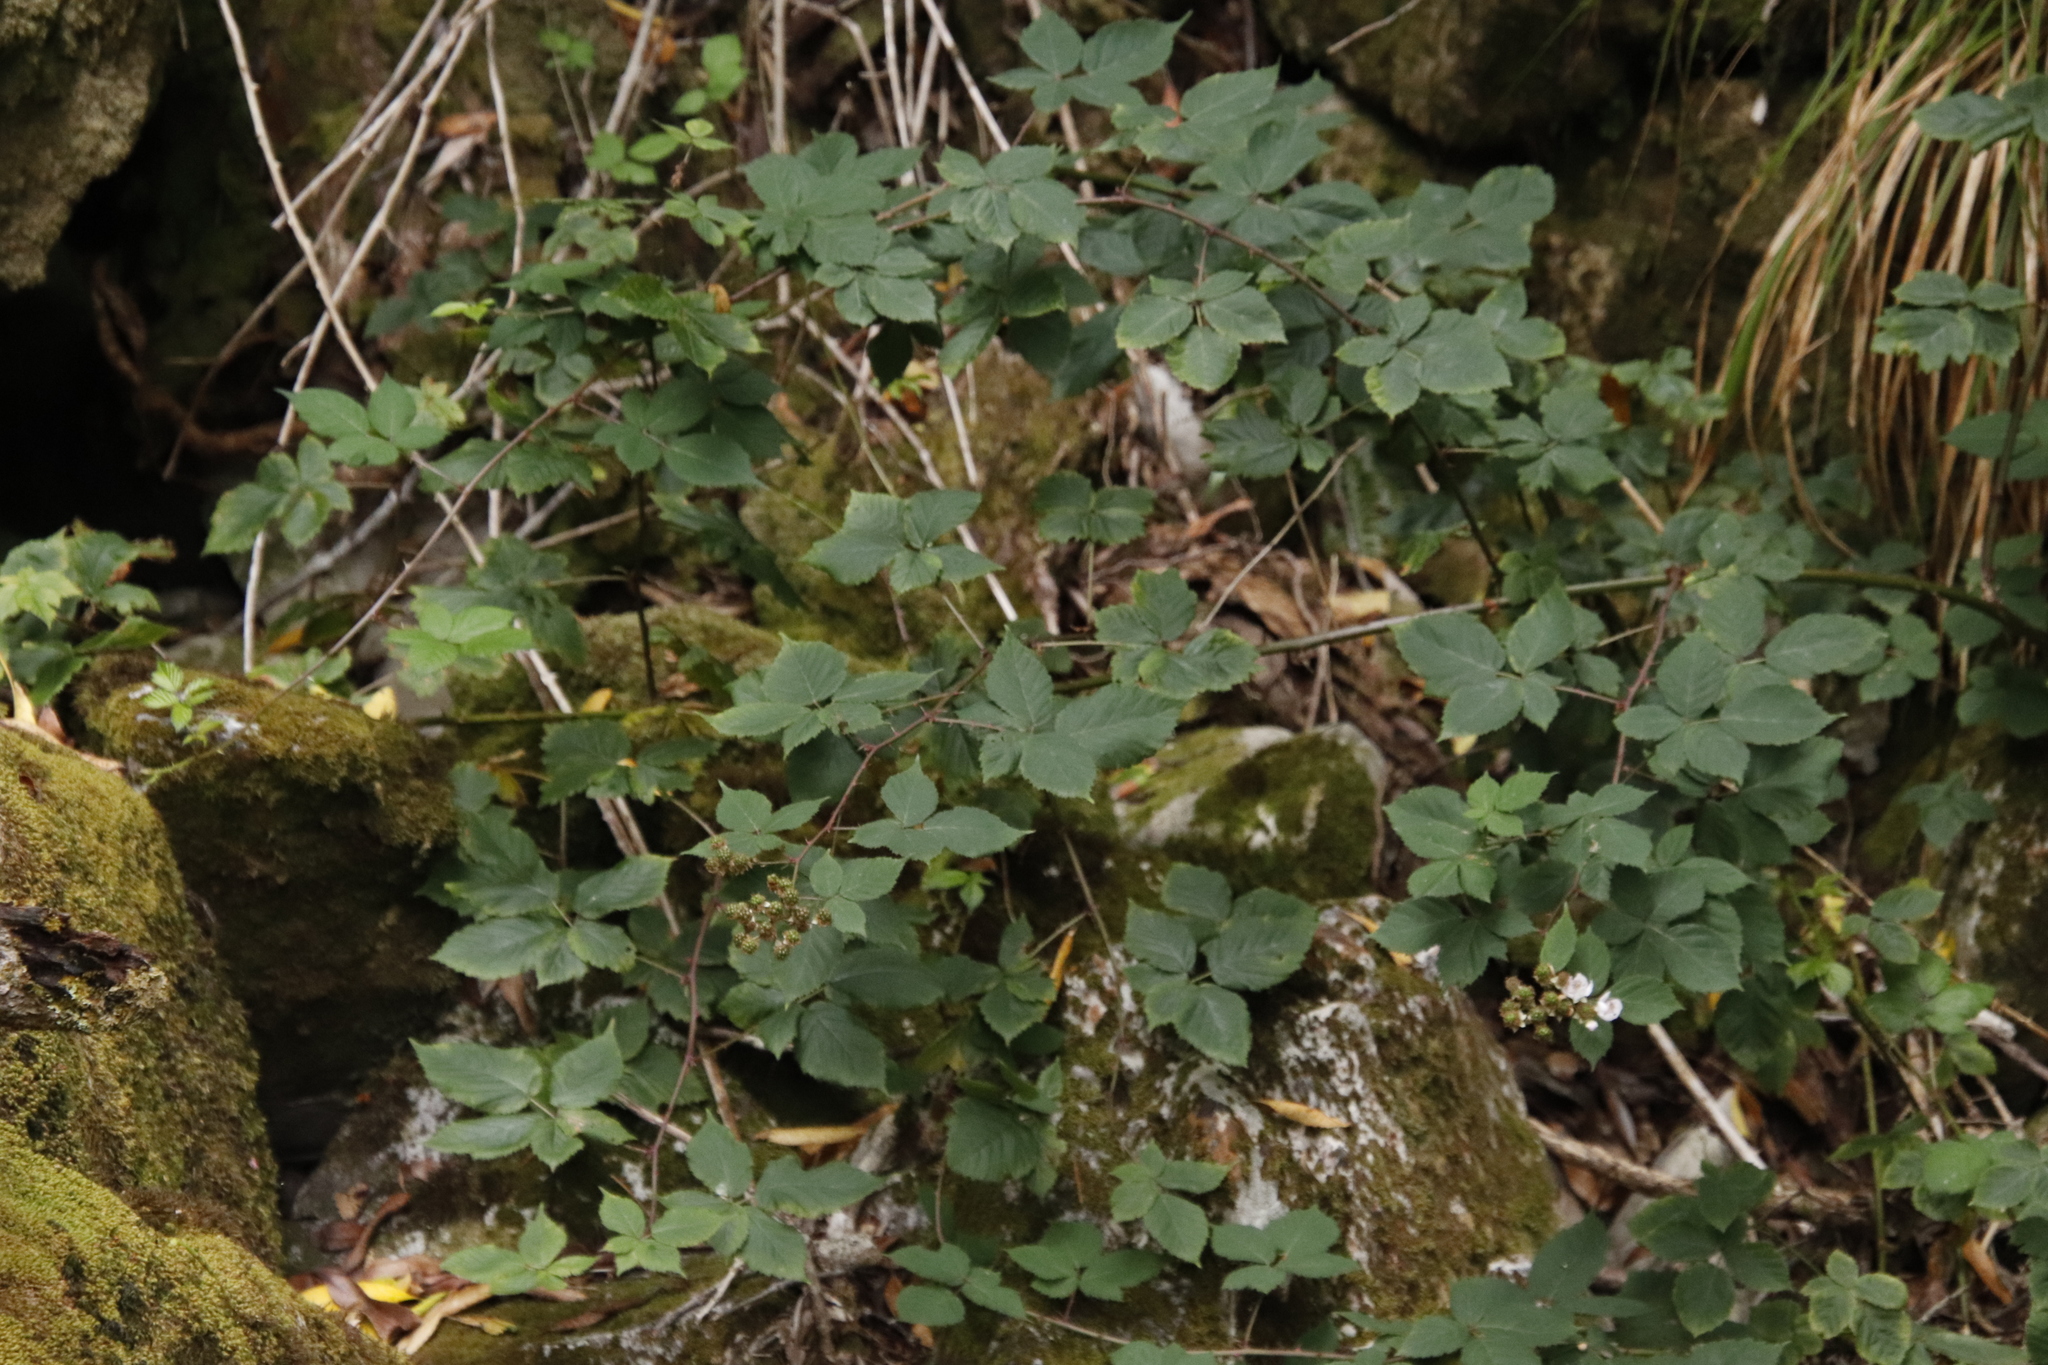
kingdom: Plantae
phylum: Tracheophyta
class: Magnoliopsida
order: Rosales
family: Rosaceae
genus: Rubus
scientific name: Rubus affinis
